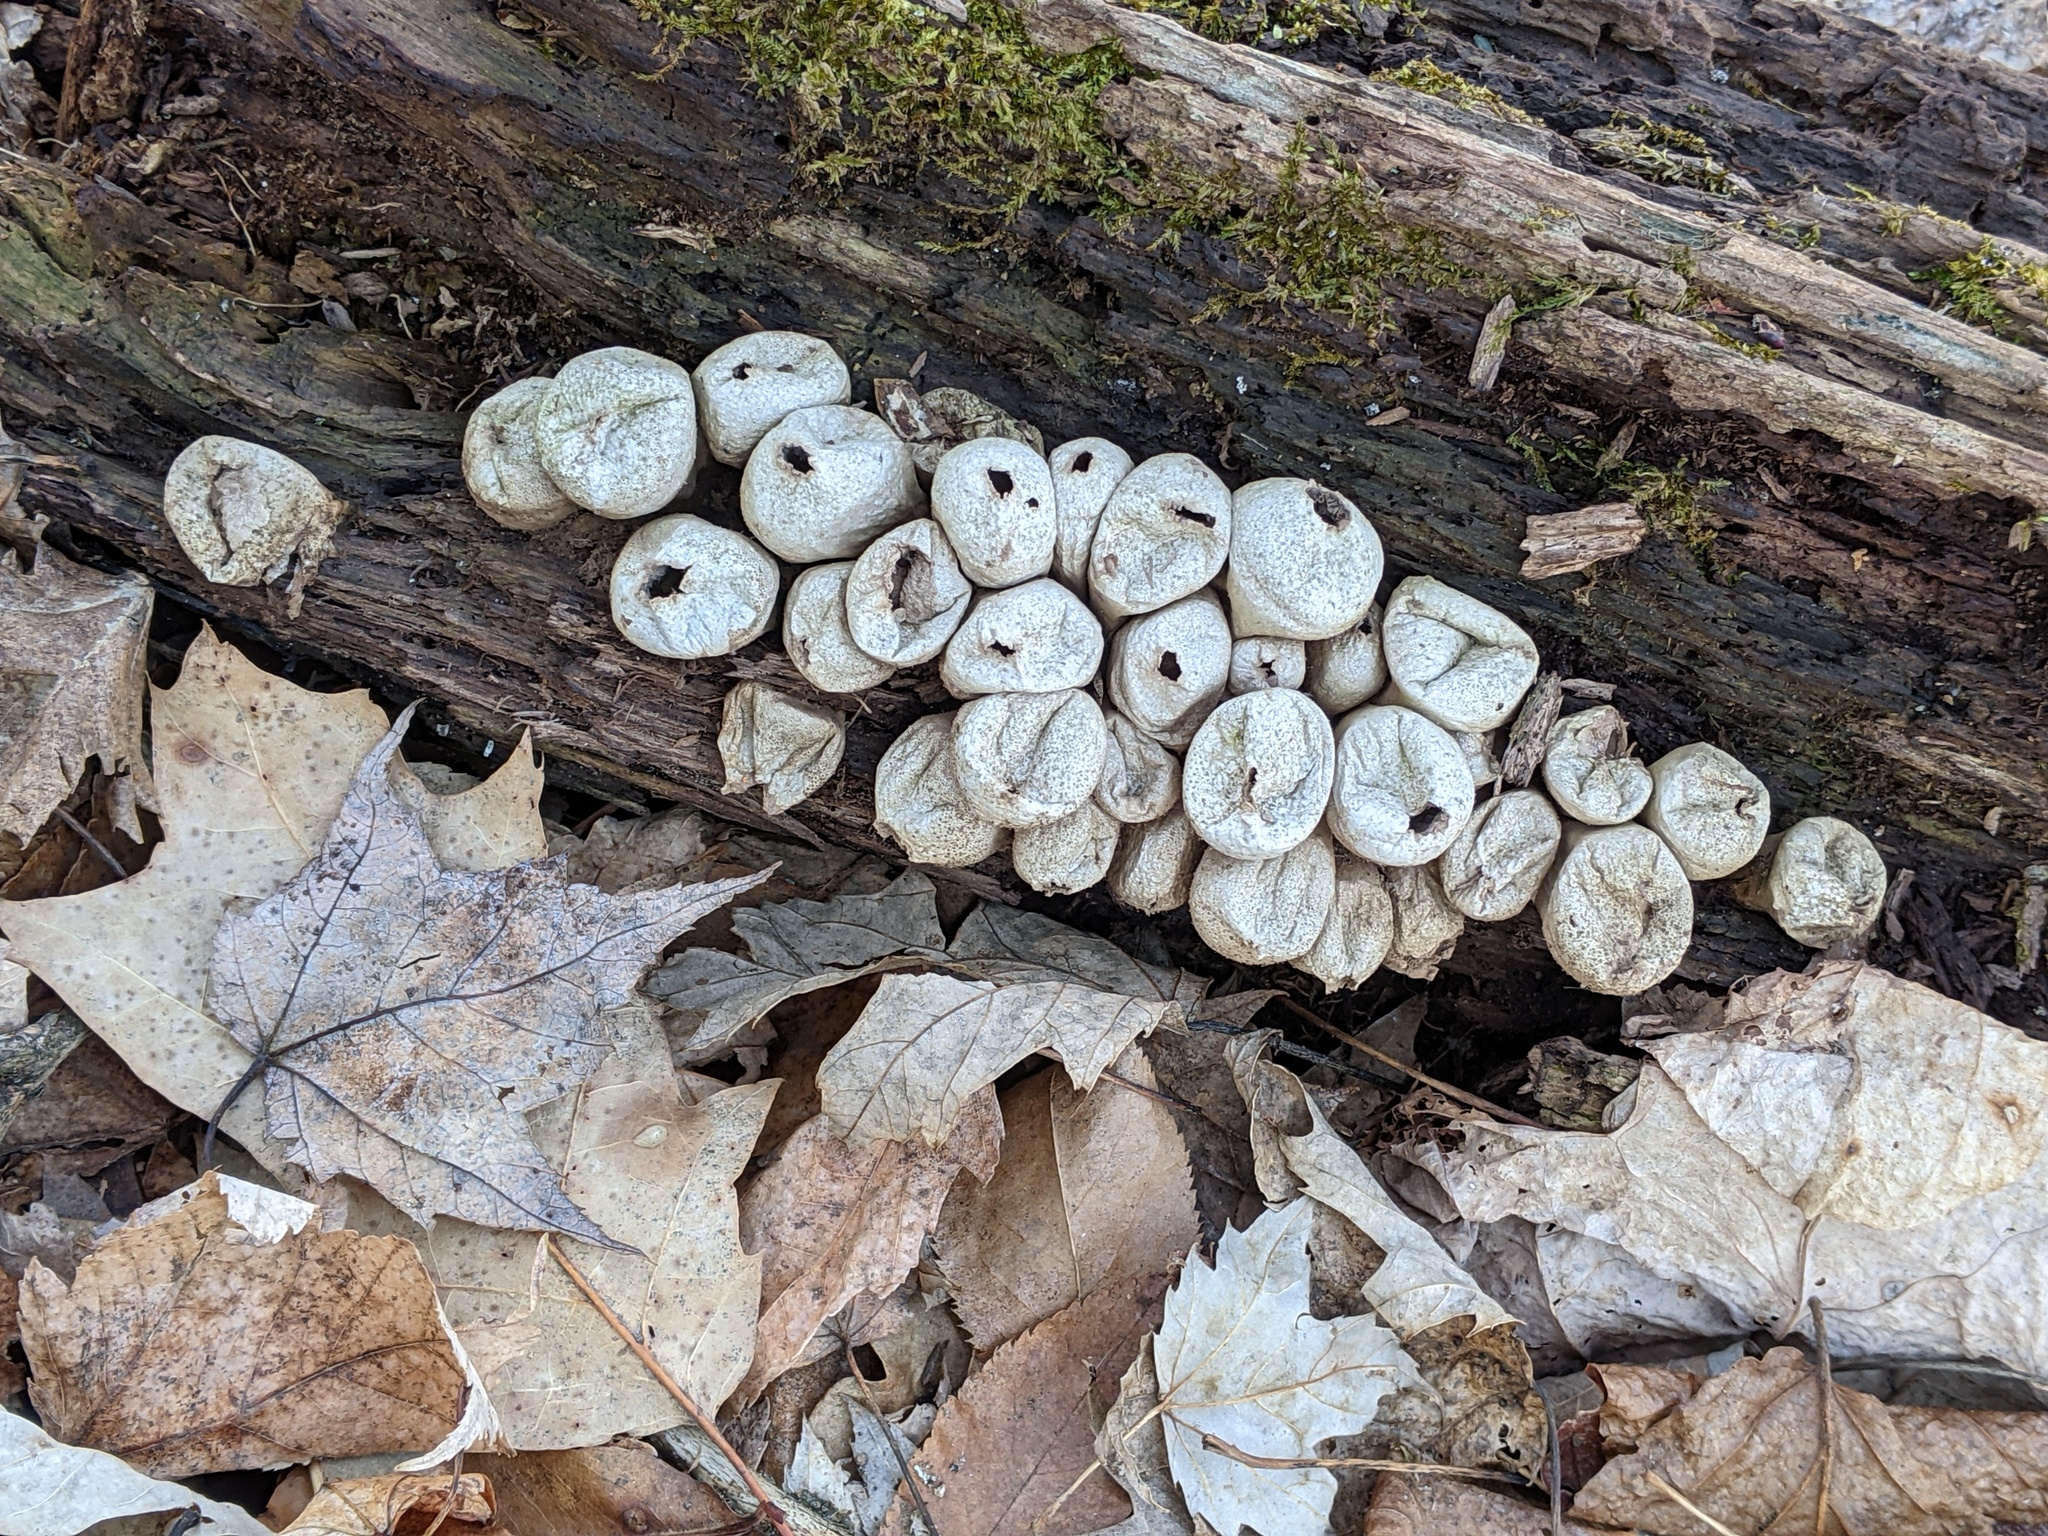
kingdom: Fungi
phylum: Basidiomycota
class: Agaricomycetes
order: Agaricales
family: Lycoperdaceae
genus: Apioperdon
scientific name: Apioperdon pyriforme
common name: Pear-shaped puffball
